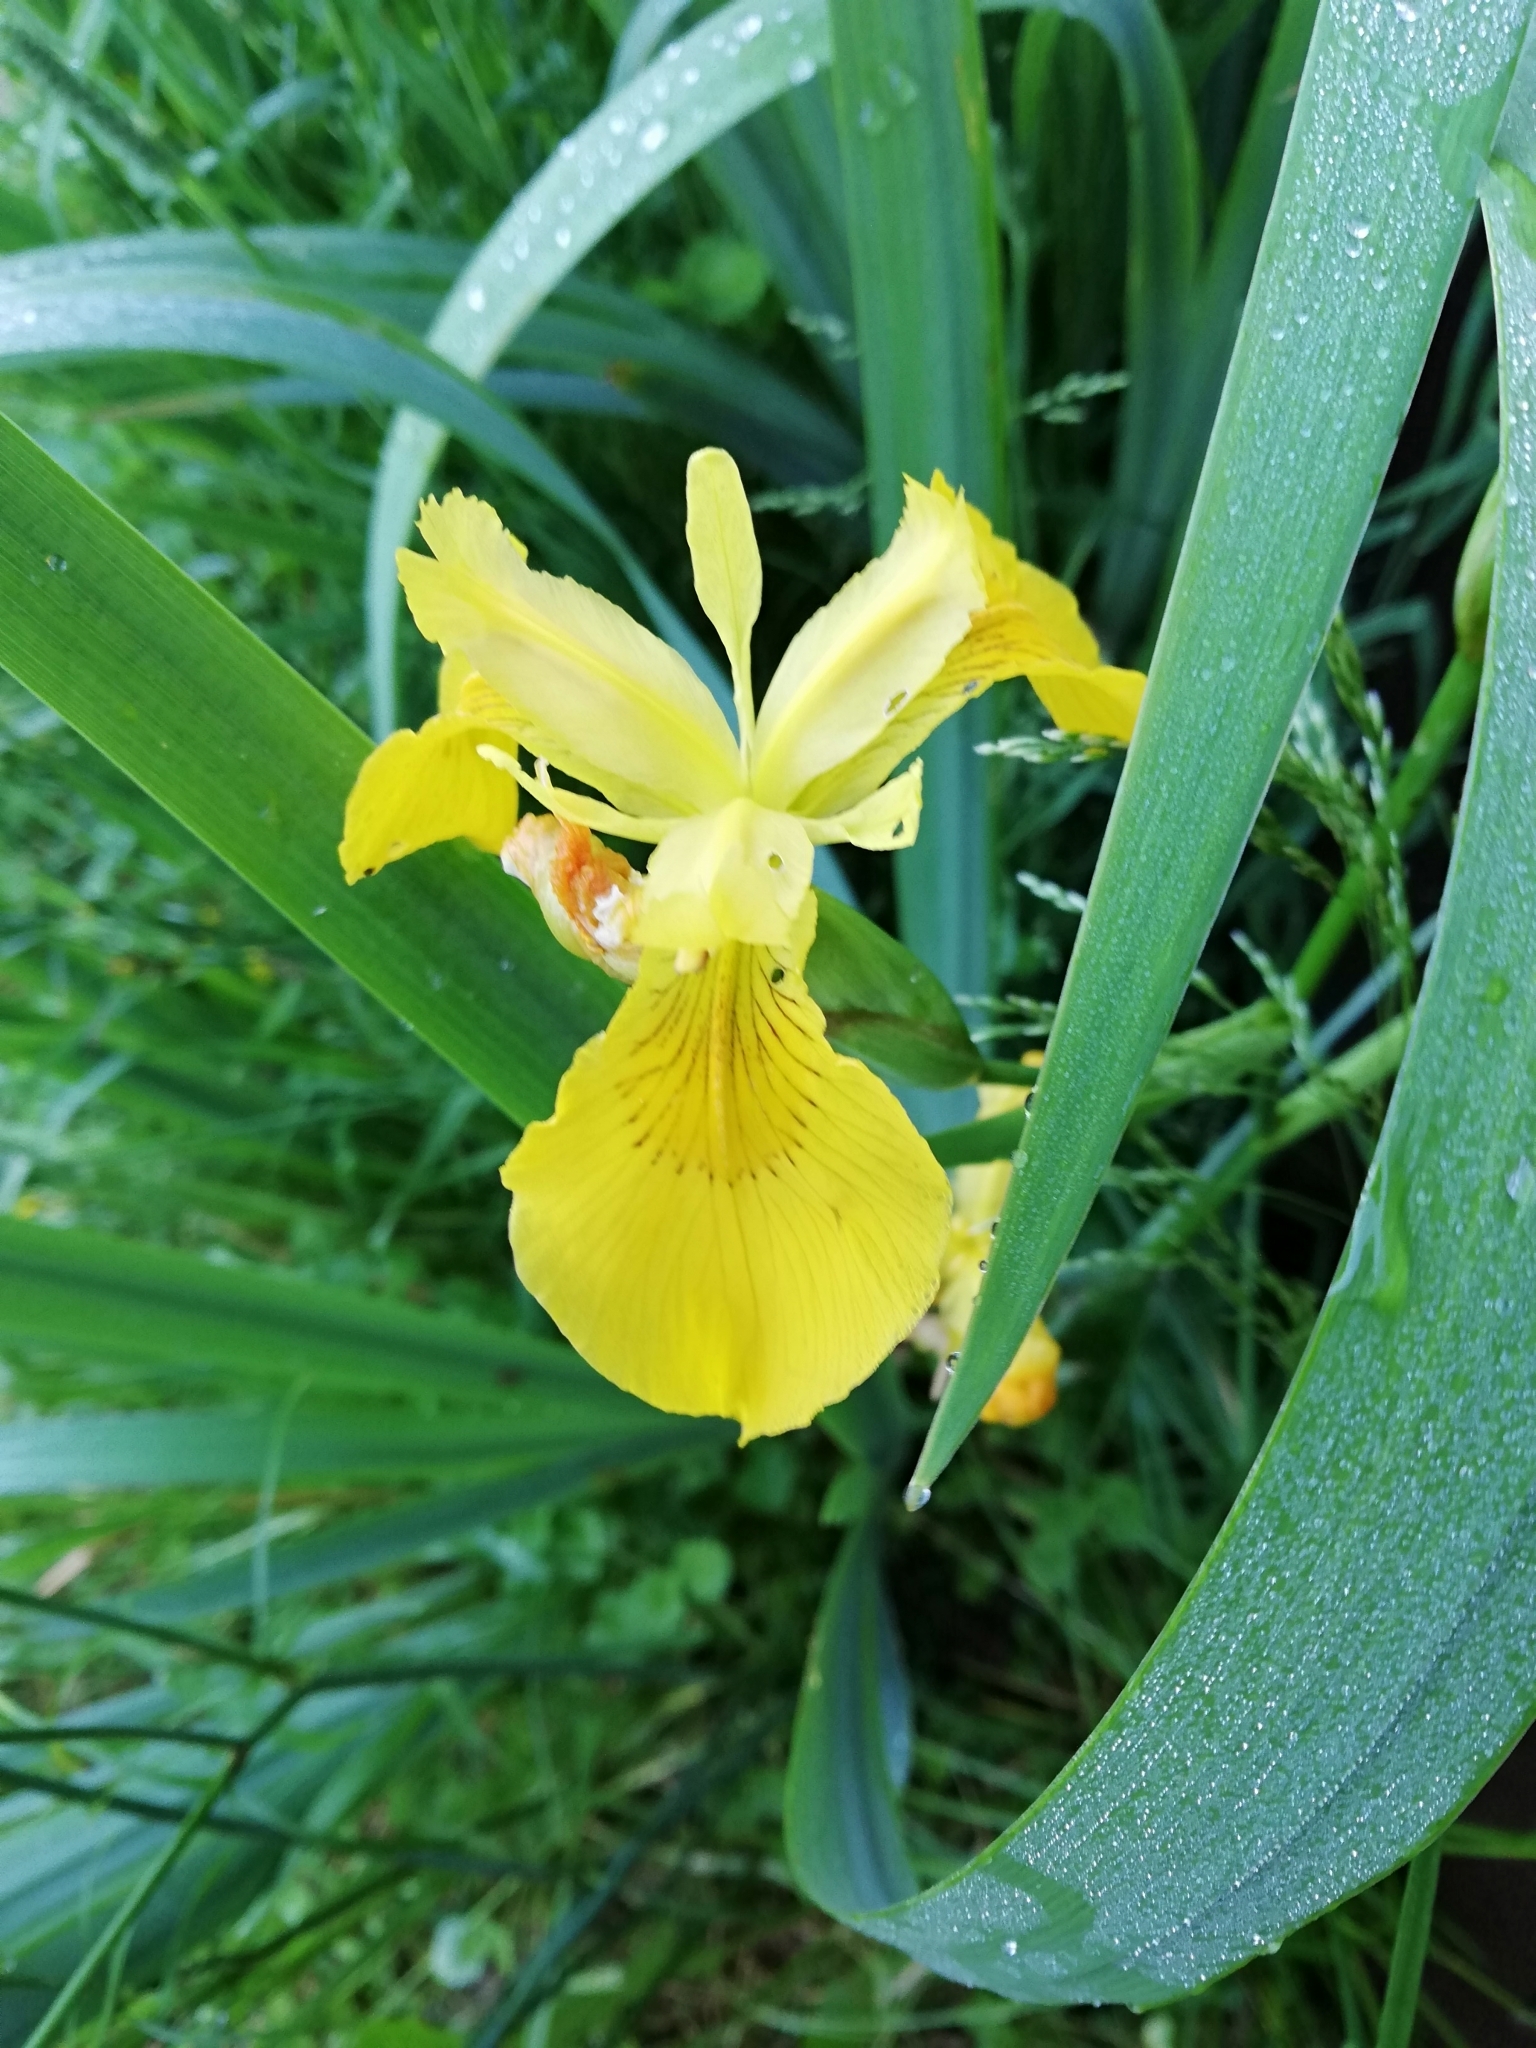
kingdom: Plantae
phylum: Tracheophyta
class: Liliopsida
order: Asparagales
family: Iridaceae
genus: Iris
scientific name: Iris pseudacorus
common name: Yellow flag
